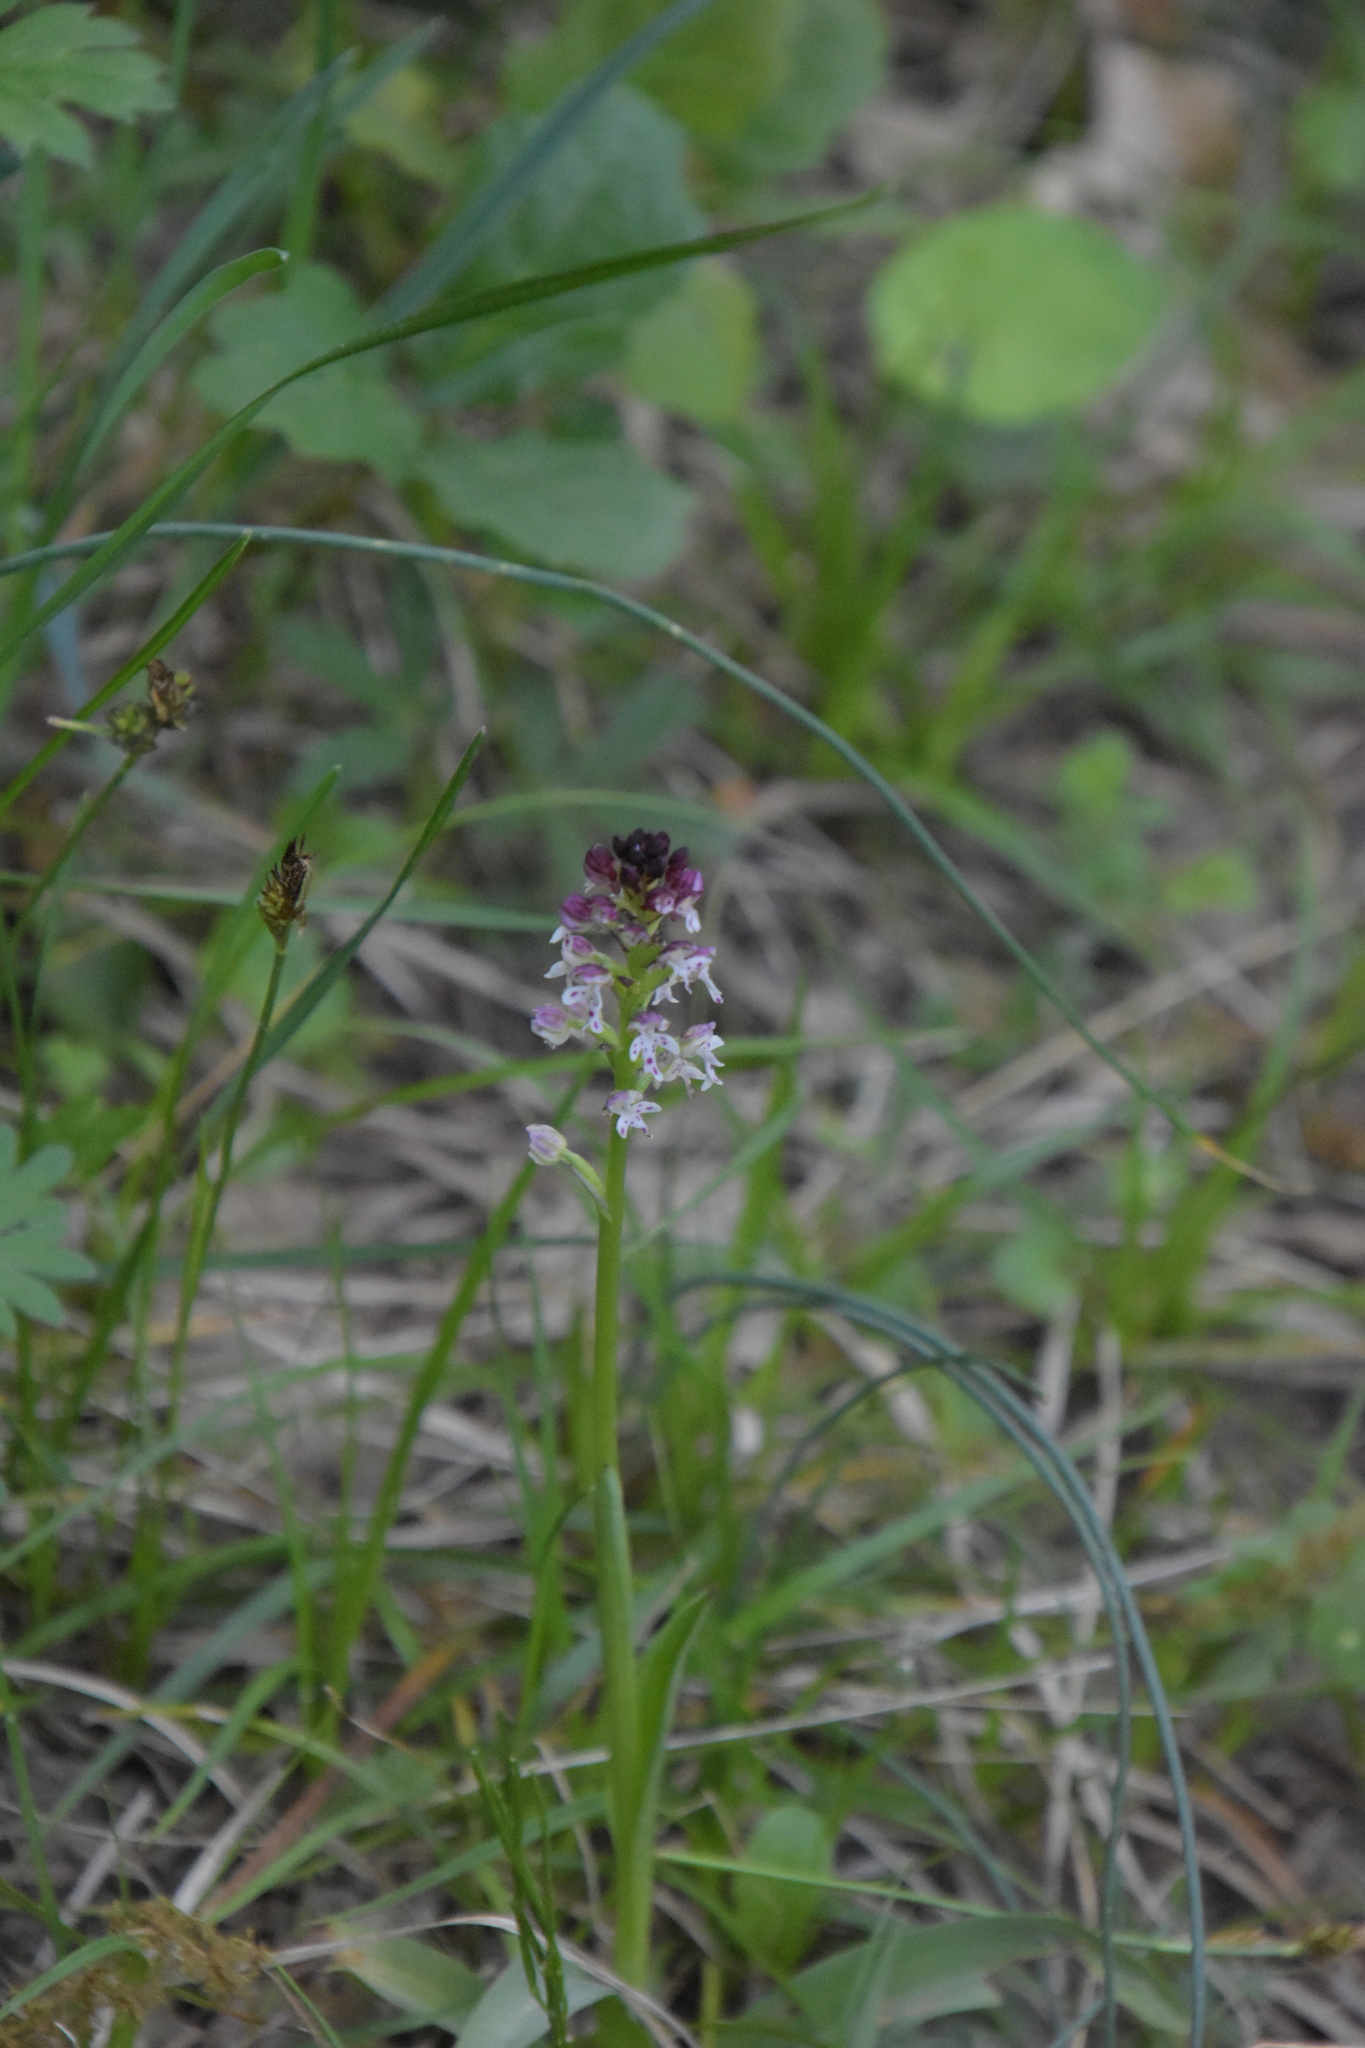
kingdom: Plantae
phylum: Tracheophyta
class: Liliopsida
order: Asparagales
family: Orchidaceae
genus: Neotinea
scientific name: Neotinea ustulata
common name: Burnt orchid
